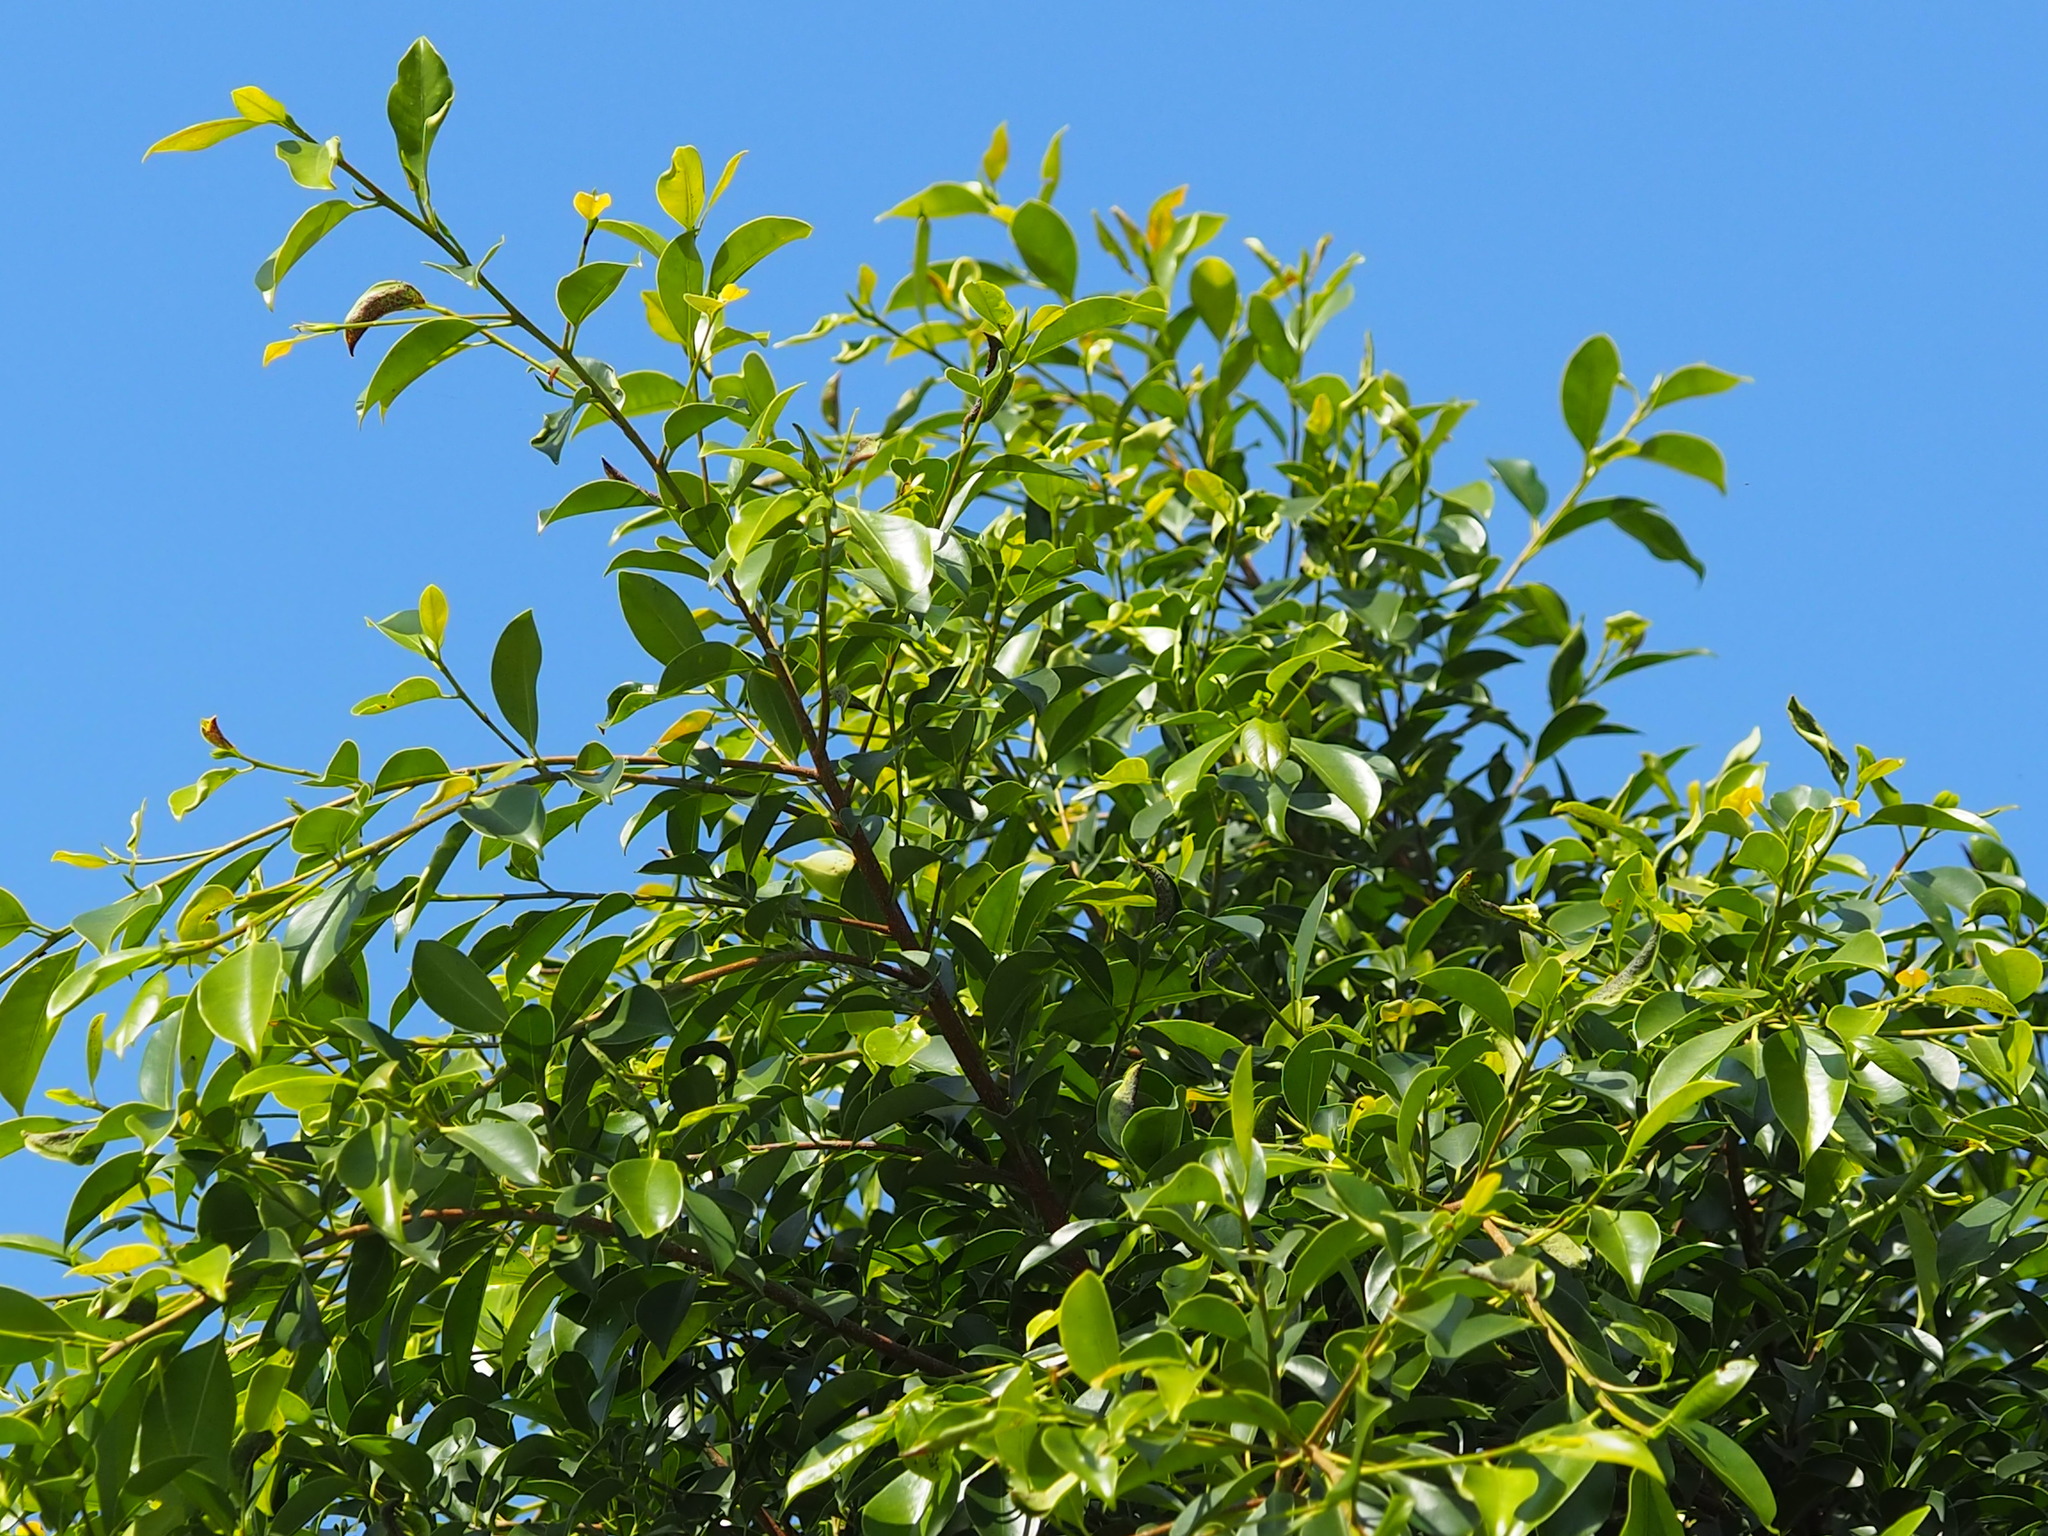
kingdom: Plantae
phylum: Tracheophyta
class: Magnoliopsida
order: Rosales
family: Moraceae
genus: Ficus
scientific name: Ficus microcarpa
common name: Chinese banyan
